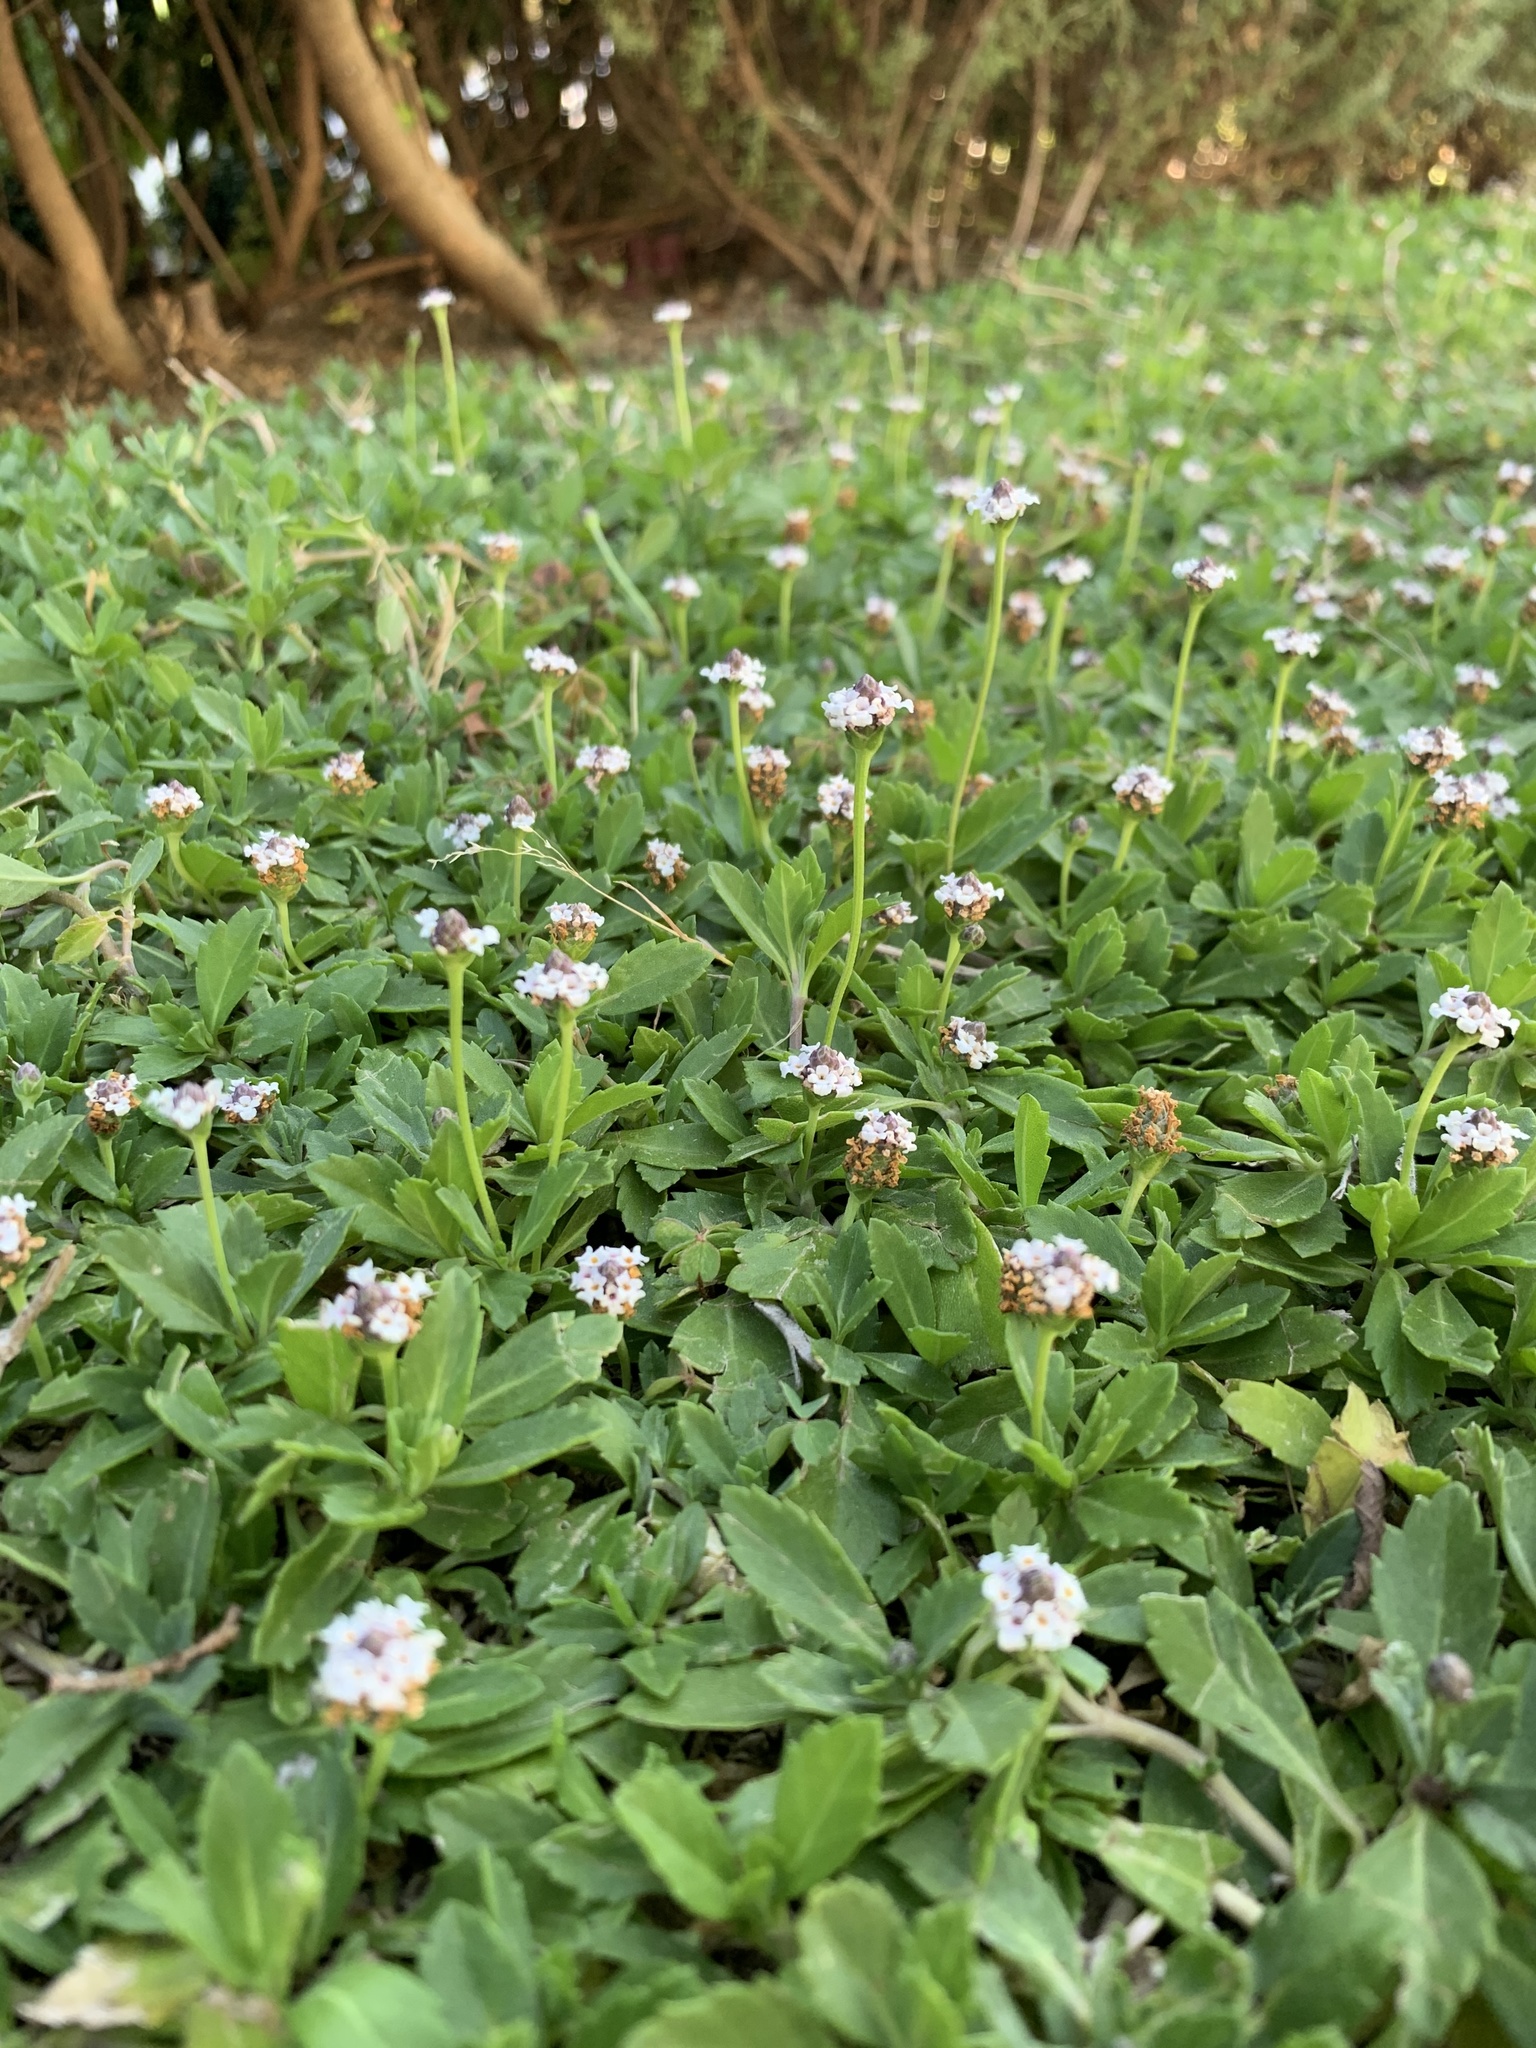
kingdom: Plantae
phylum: Tracheophyta
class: Magnoliopsida
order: Lamiales
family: Verbenaceae
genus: Phyla
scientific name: Phyla nodiflora
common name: Frogfruit
